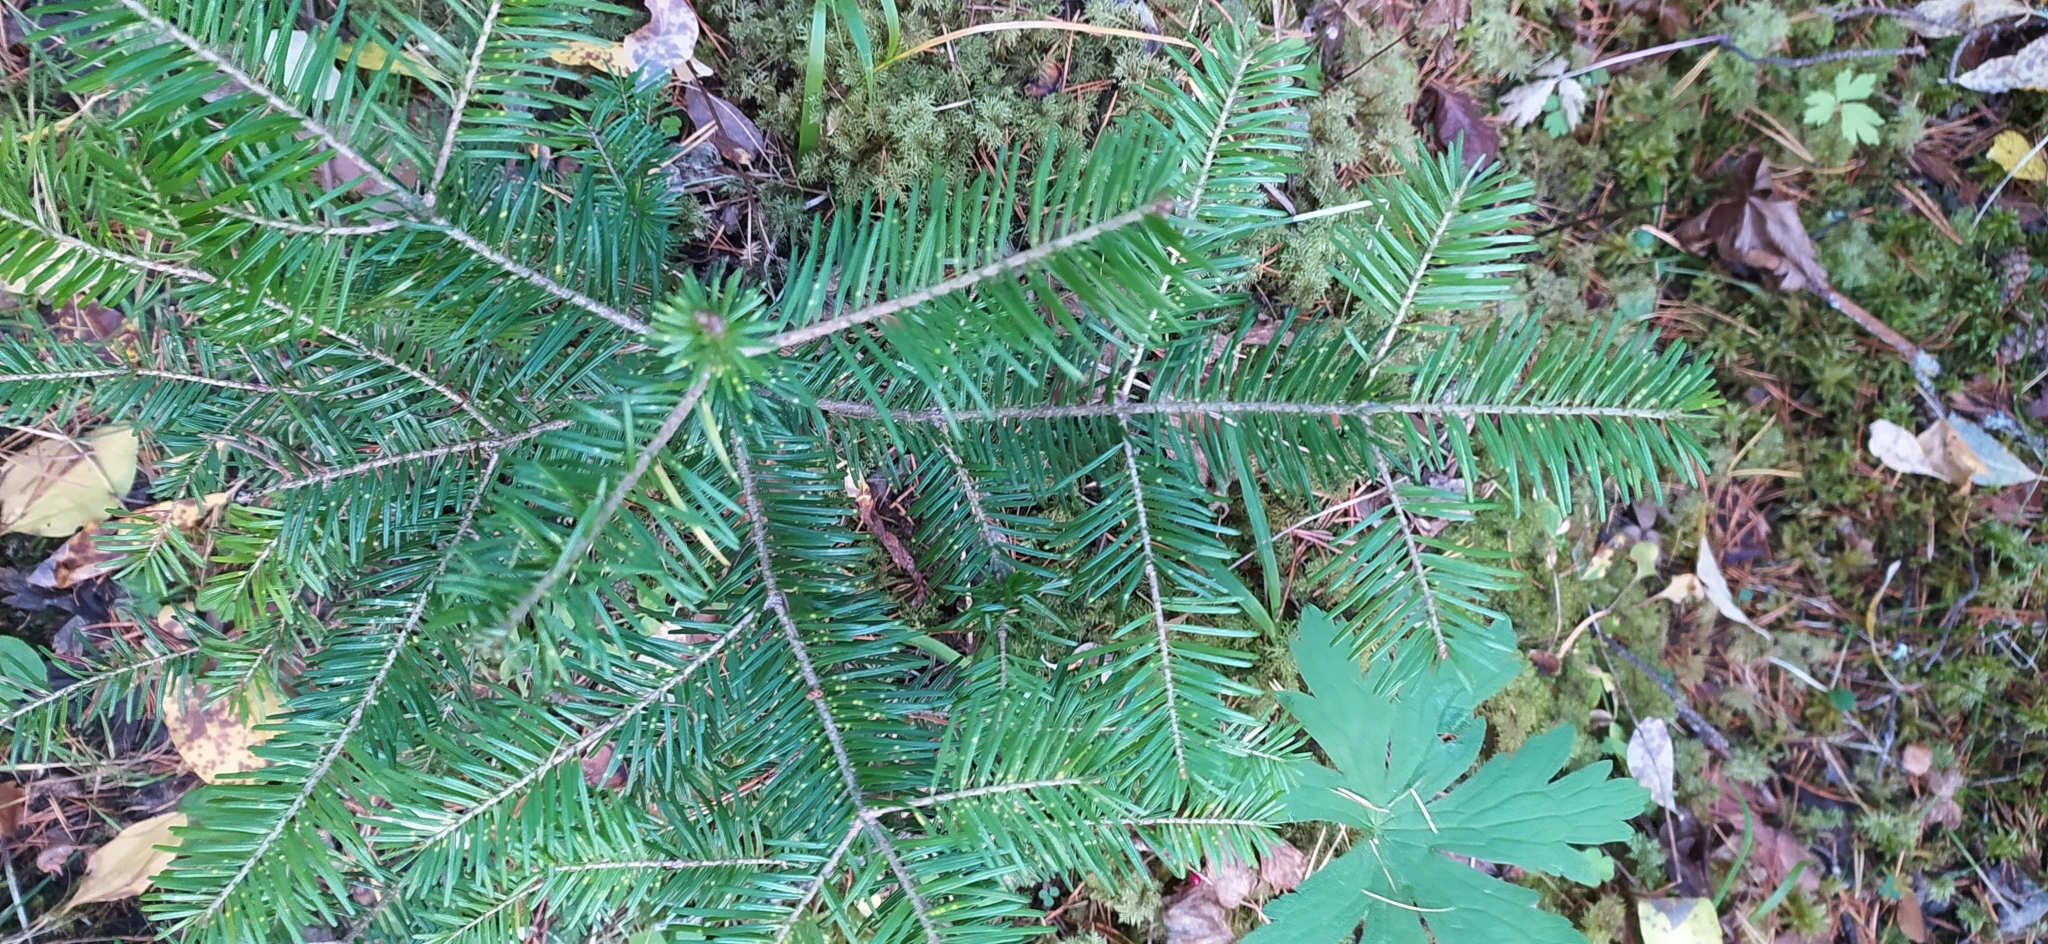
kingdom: Plantae
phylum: Tracheophyta
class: Pinopsida
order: Pinales
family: Pinaceae
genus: Abies
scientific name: Abies sibirica
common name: Siberian fir
